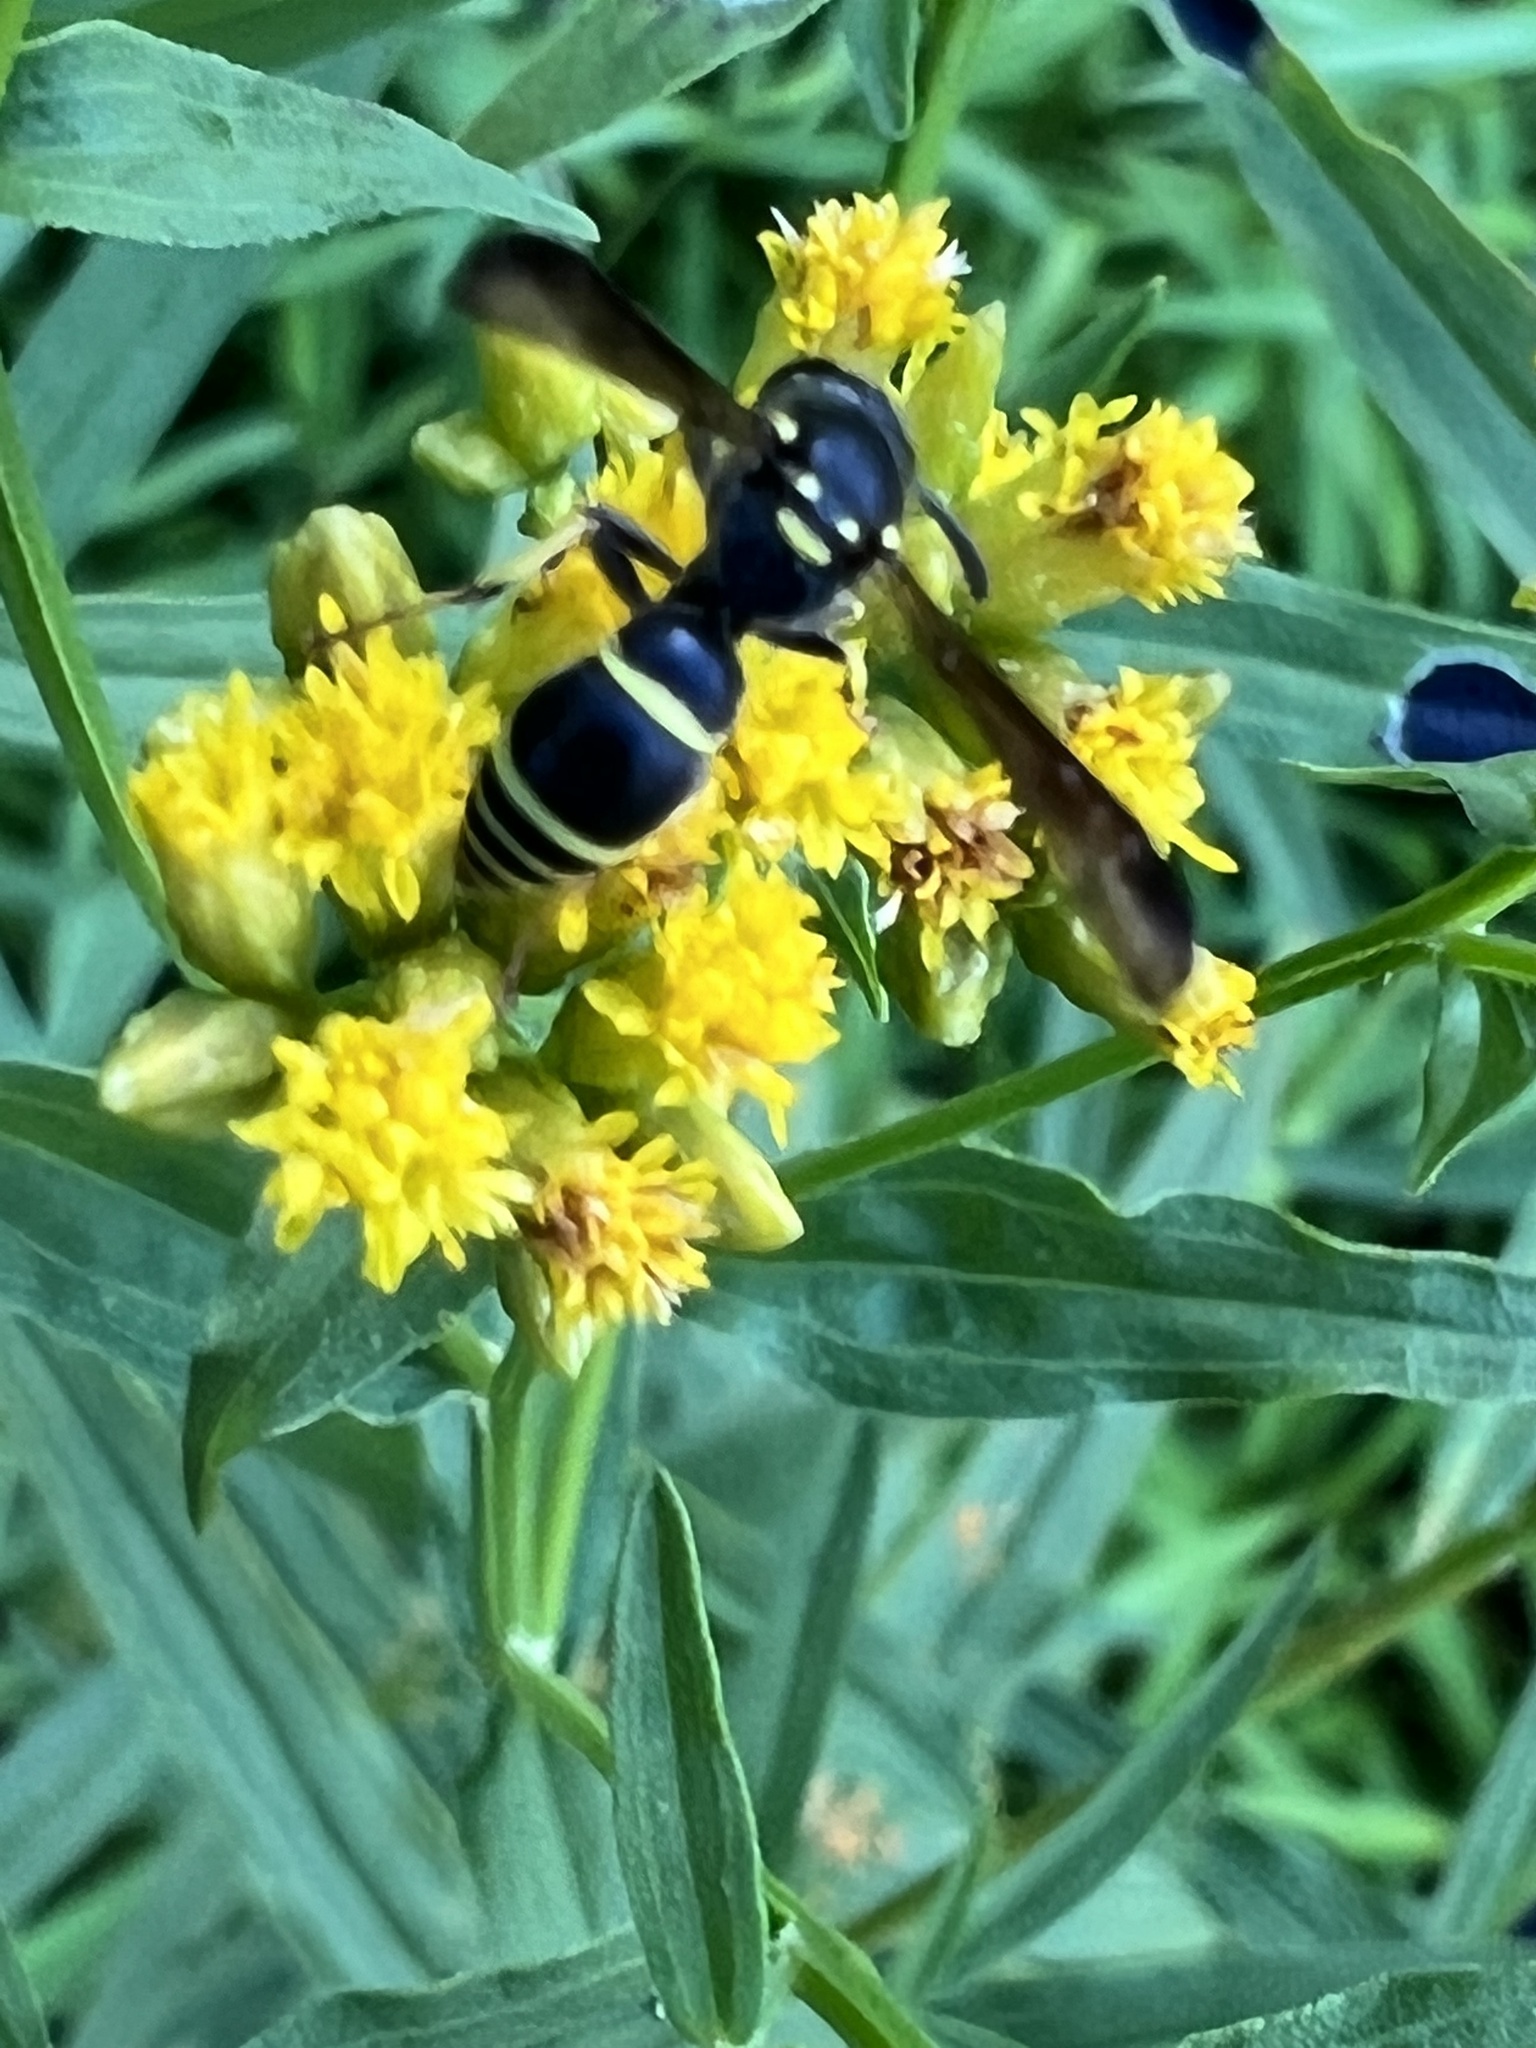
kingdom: Animalia
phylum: Arthropoda
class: Insecta
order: Hymenoptera
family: Vespidae
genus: Ancistrocerus
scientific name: Ancistrocerus adiabatus
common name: Bramble mason wasp
